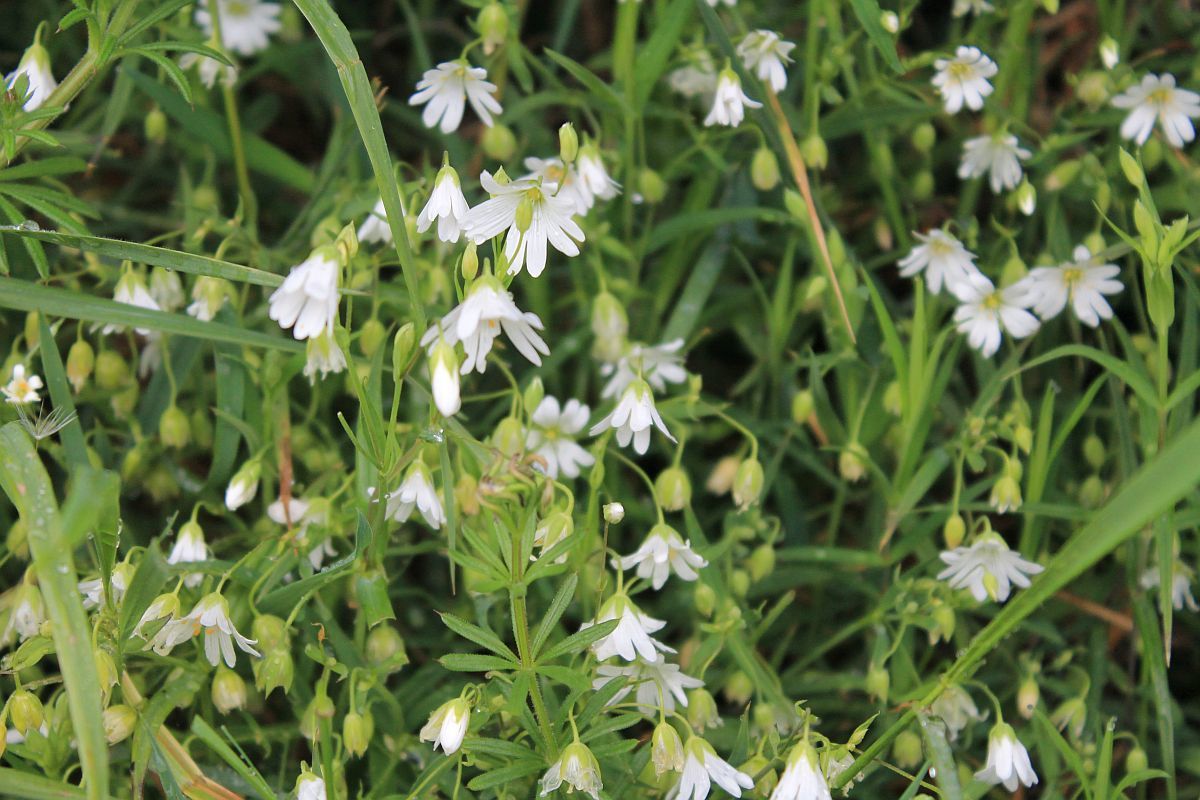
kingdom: Plantae
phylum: Tracheophyta
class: Magnoliopsida
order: Caryophyllales
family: Caryophyllaceae
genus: Rabelera
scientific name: Rabelera holostea
